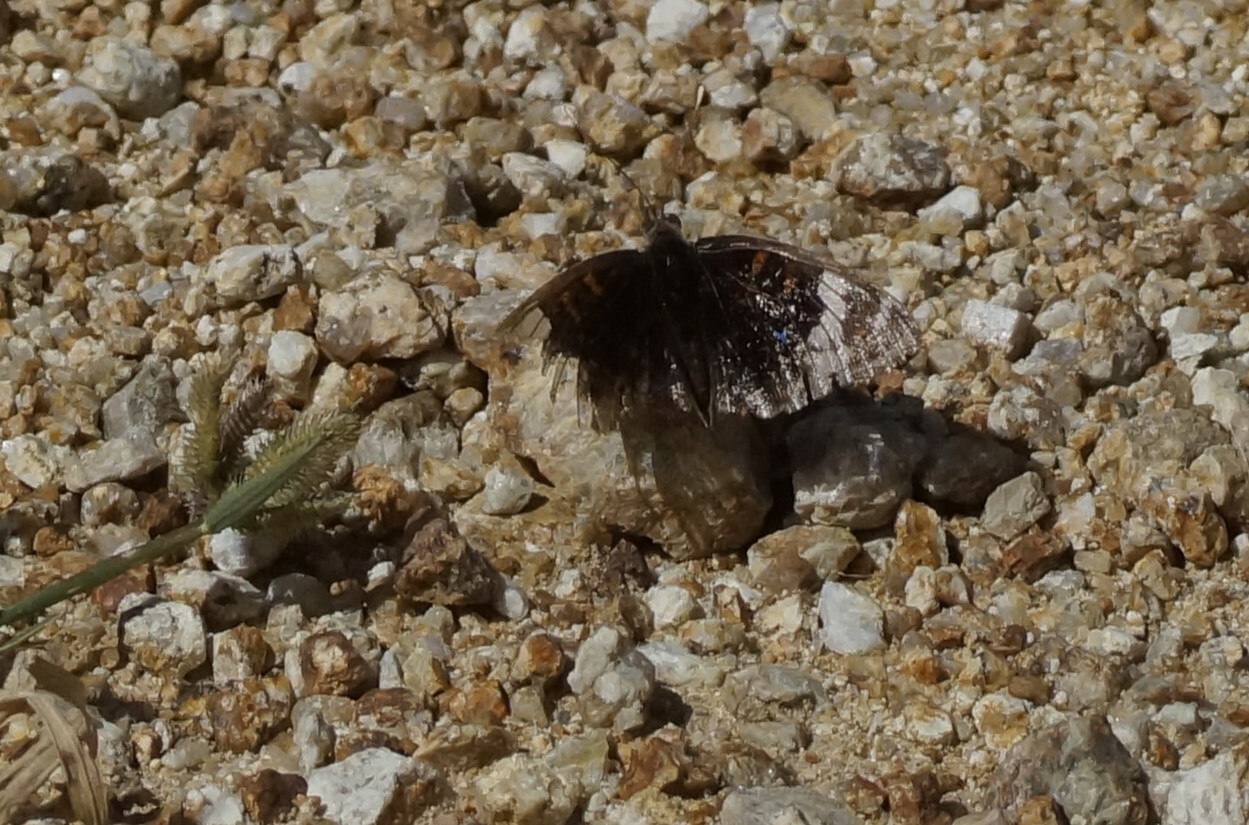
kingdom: Animalia
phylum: Arthropoda
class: Insecta
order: Lepidoptera
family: Nymphalidae
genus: Junonia
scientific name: Junonia orithya
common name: Blue pansy
